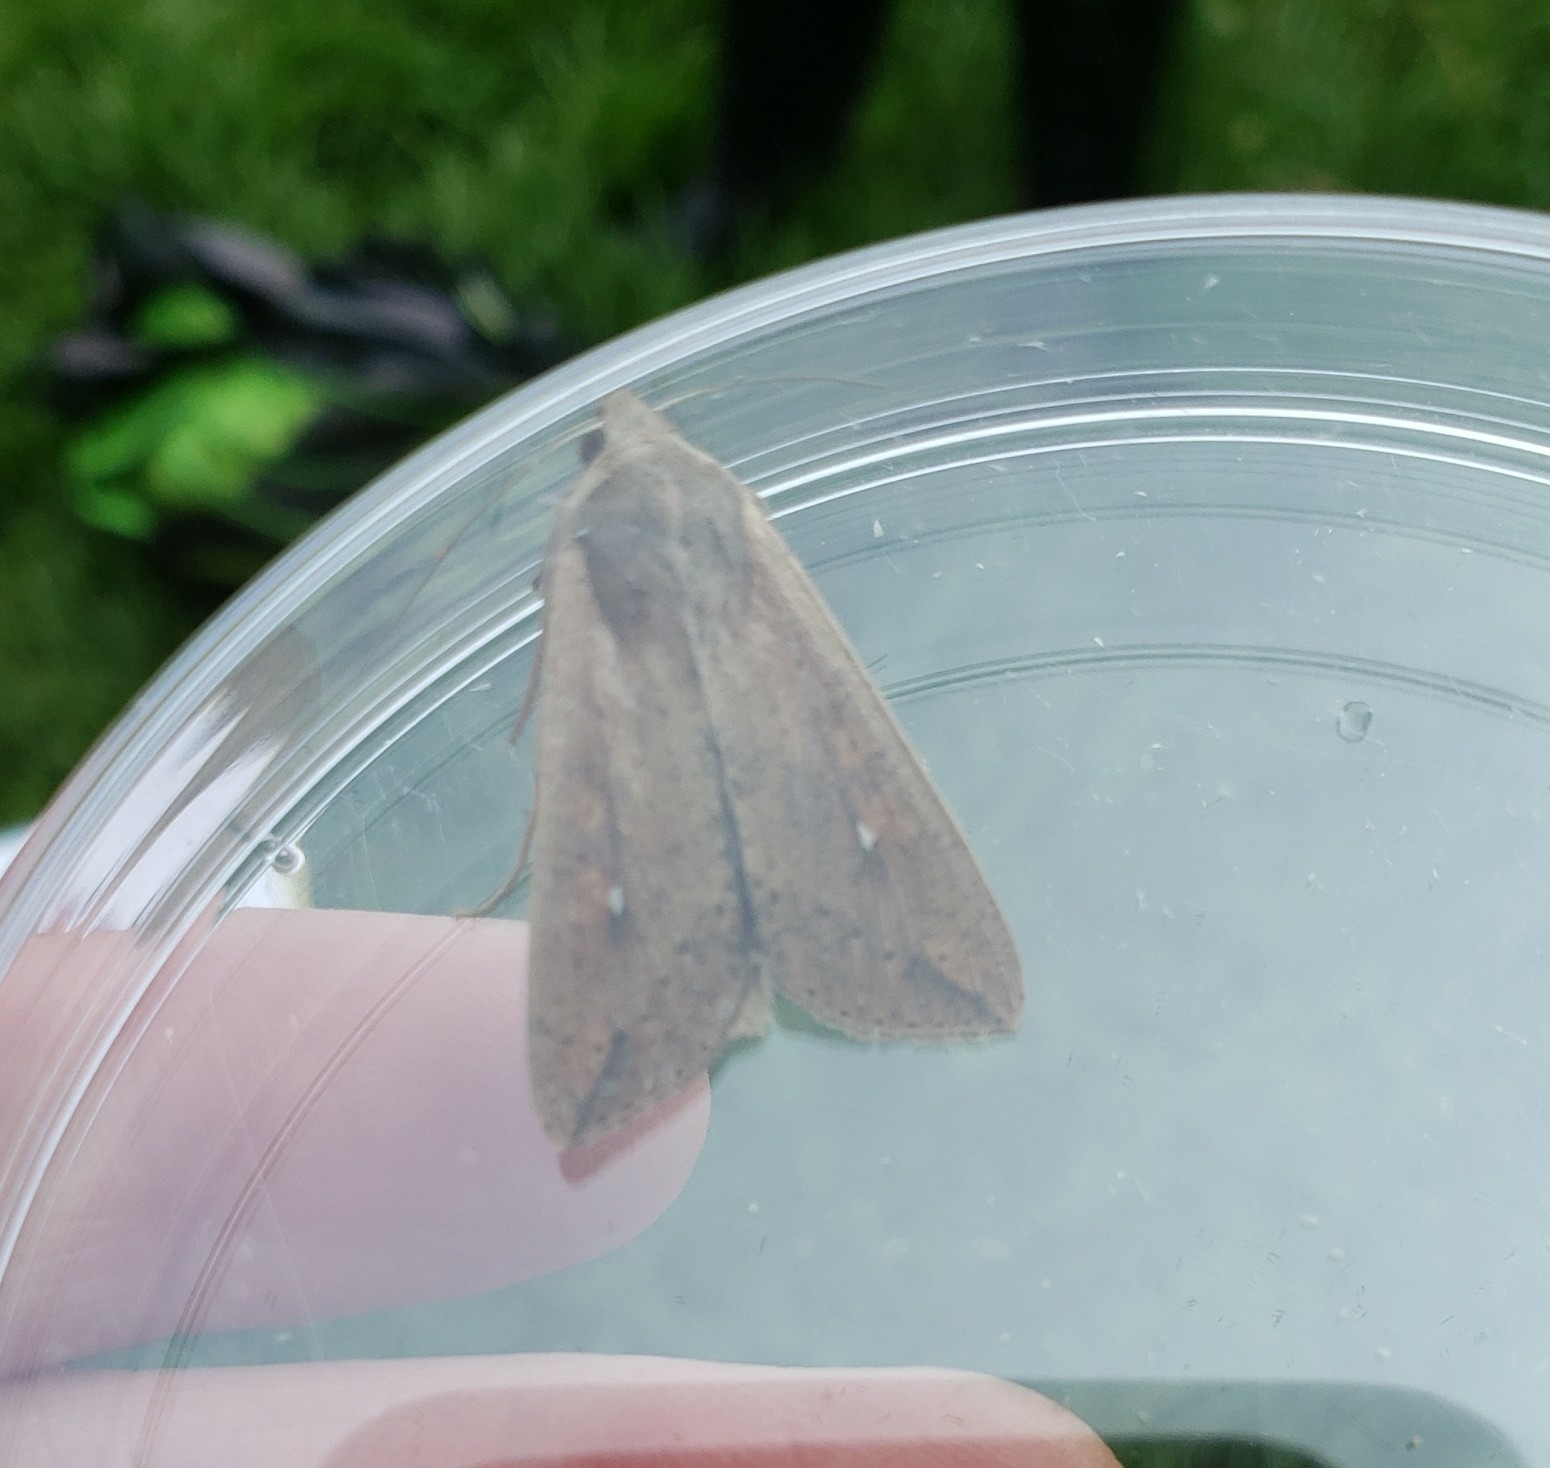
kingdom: Animalia
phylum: Arthropoda
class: Insecta
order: Lepidoptera
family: Noctuidae
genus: Mythimna
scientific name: Mythimna unipuncta
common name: White-speck
